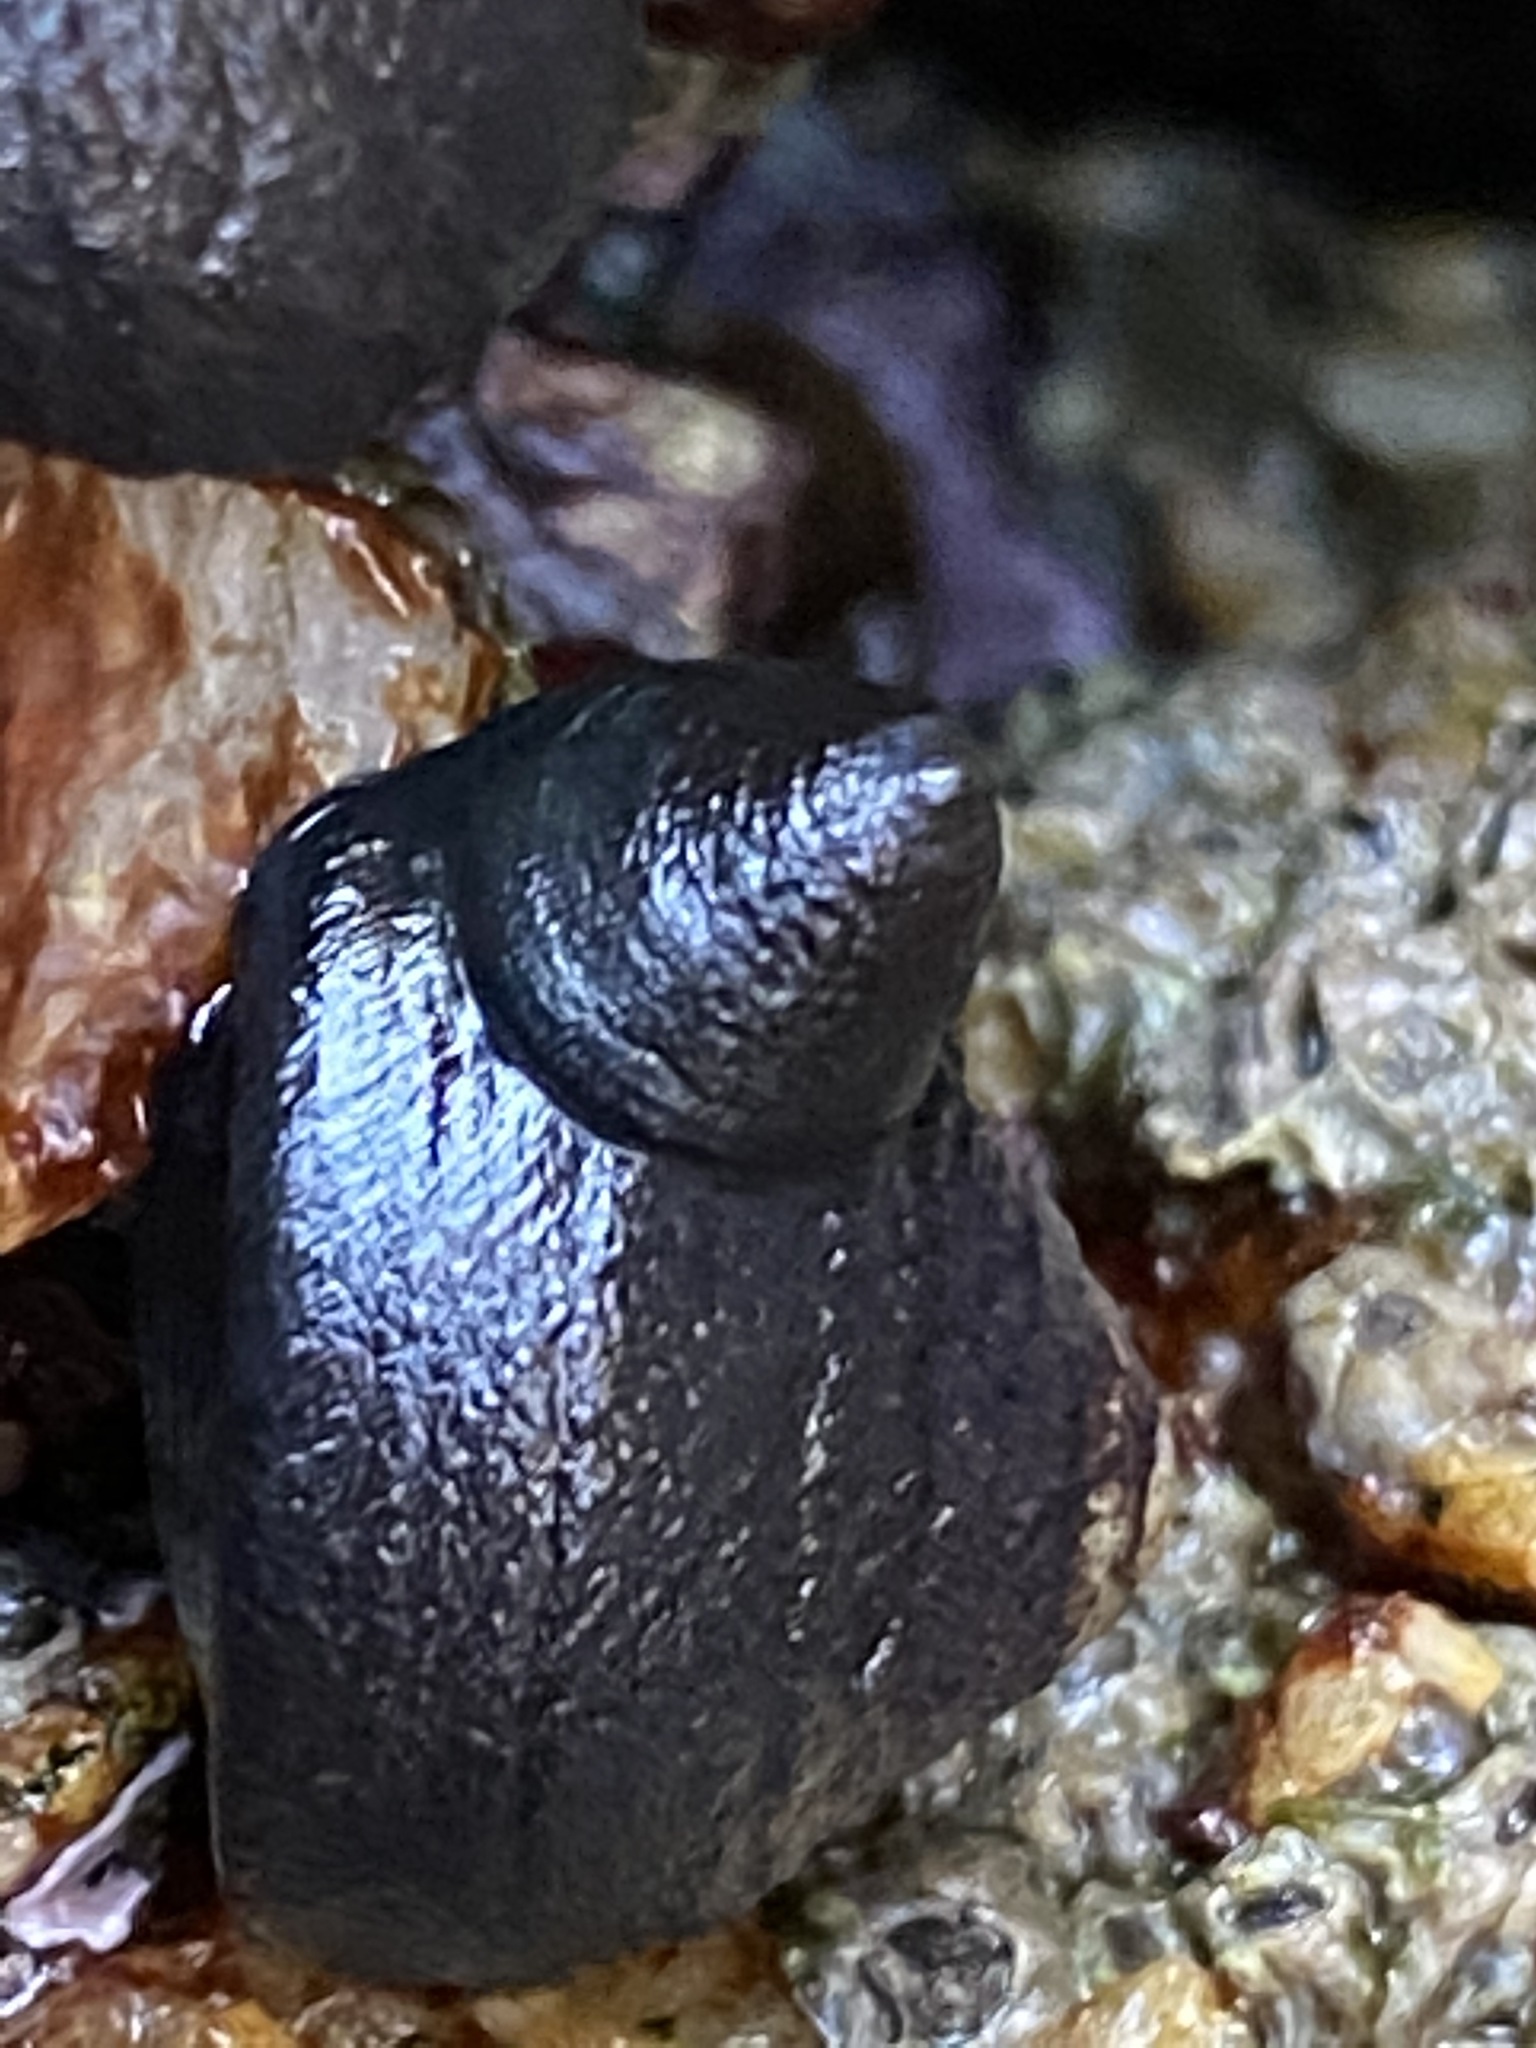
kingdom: Animalia
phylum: Mollusca
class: Gastropoda
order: Trochida
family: Tegulidae
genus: Tegula
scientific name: Tegula funebralis
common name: Black tegula
